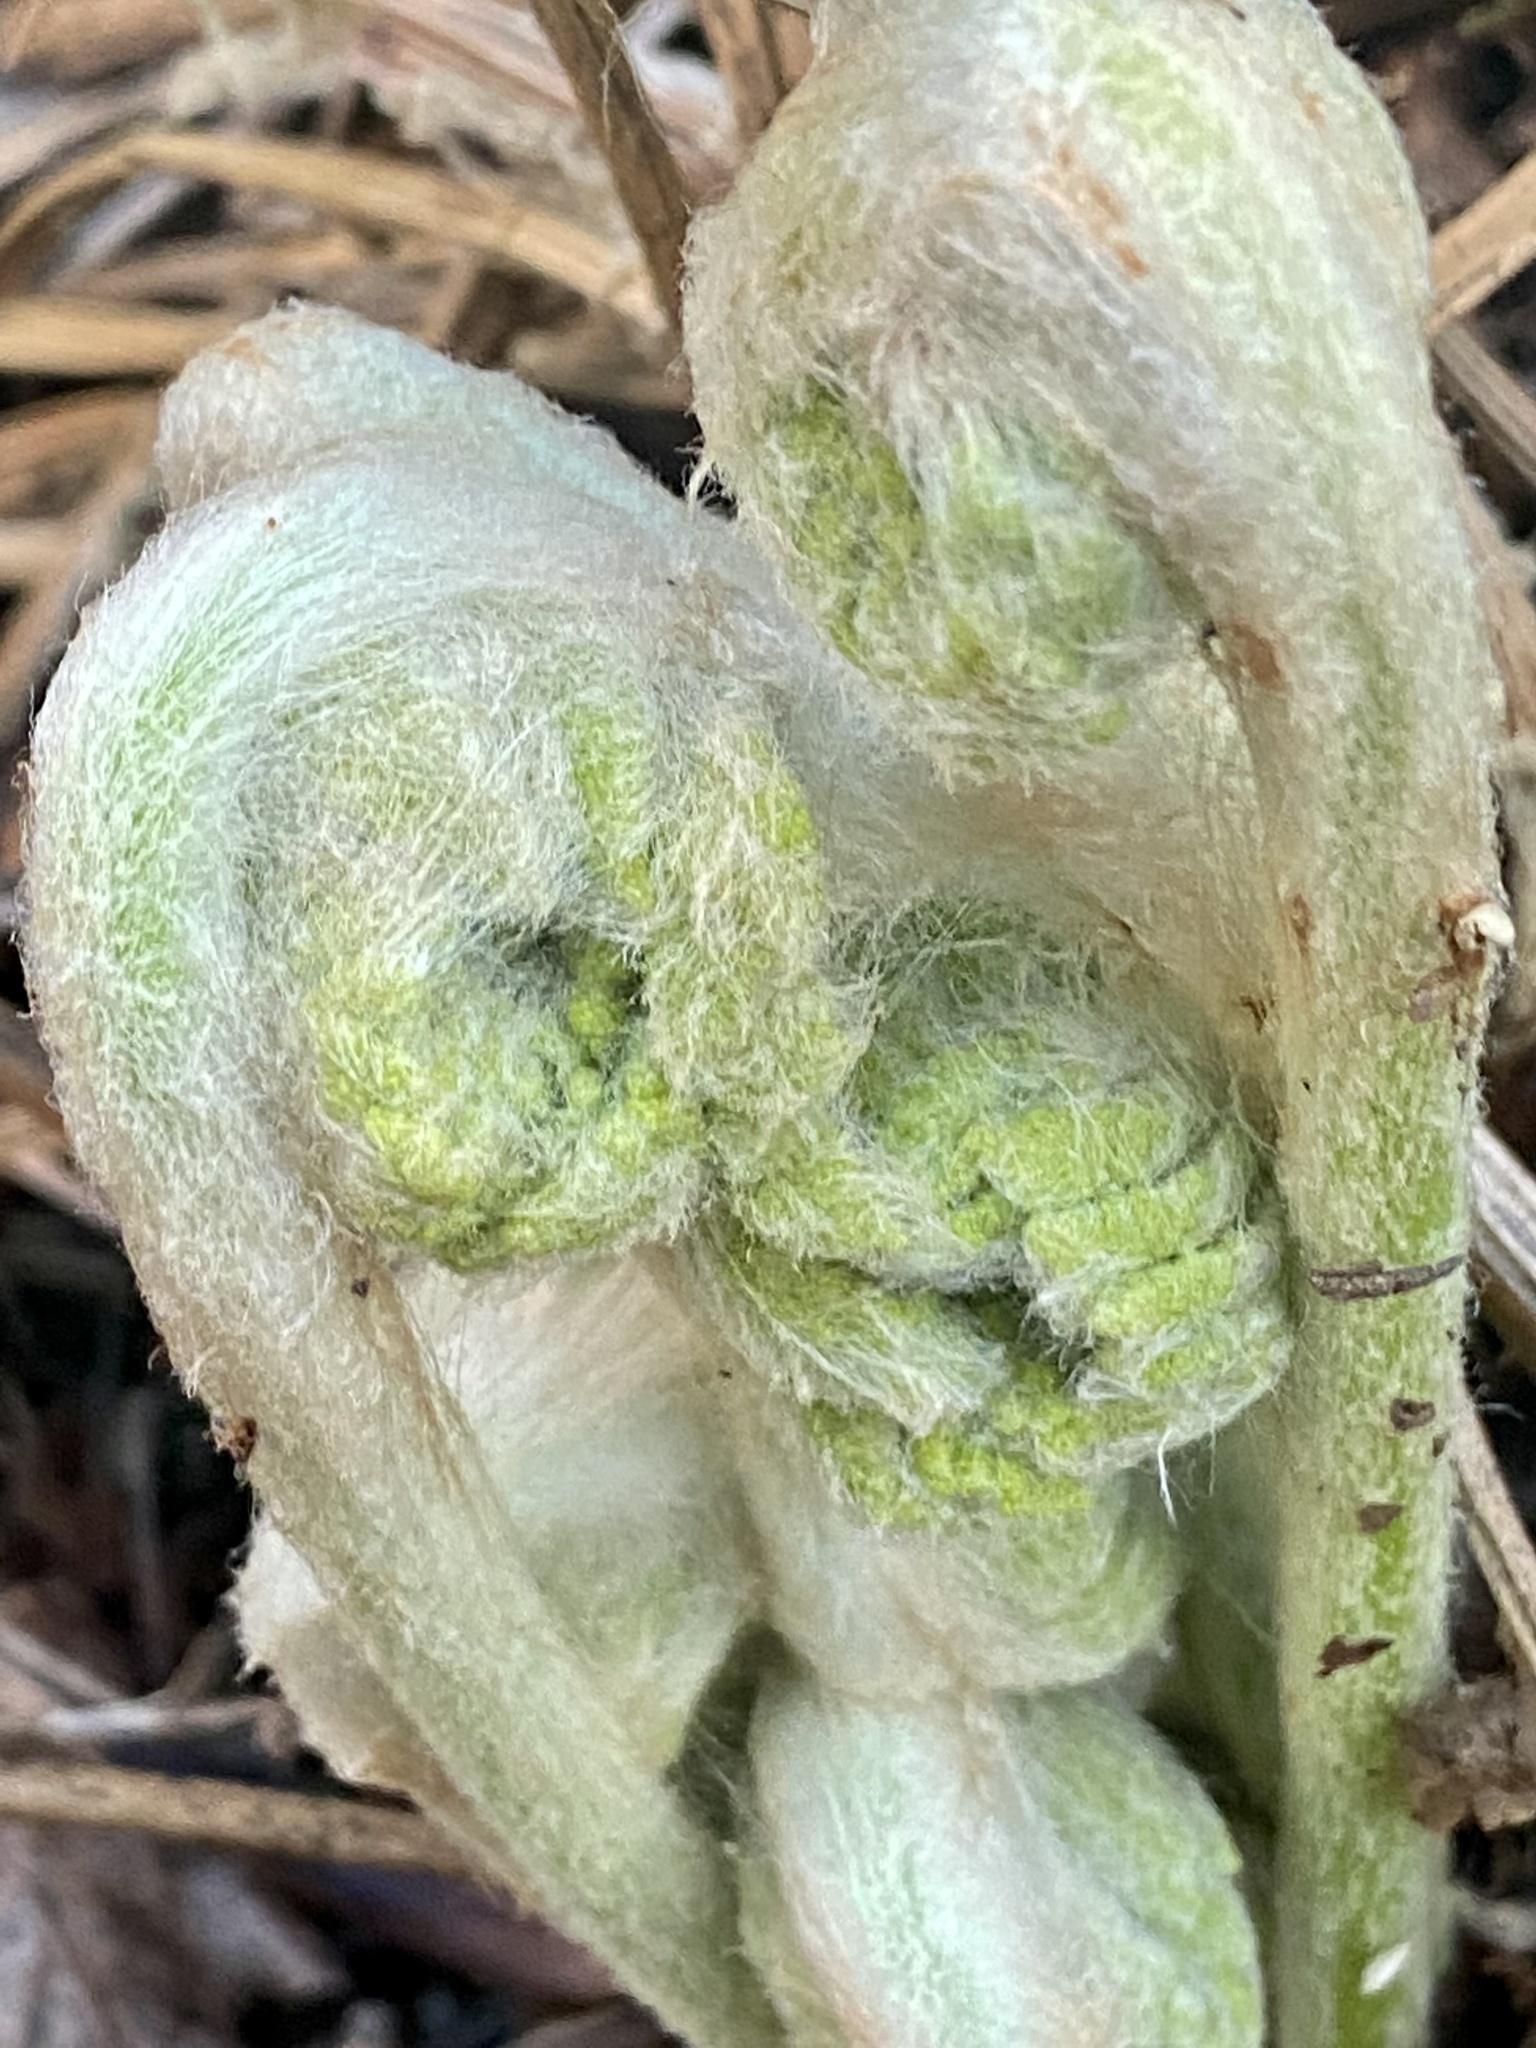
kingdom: Plantae
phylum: Tracheophyta
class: Polypodiopsida
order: Osmundales
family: Osmundaceae
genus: Osmundastrum
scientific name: Osmundastrum cinnamomeum
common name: Cinnamon fern
